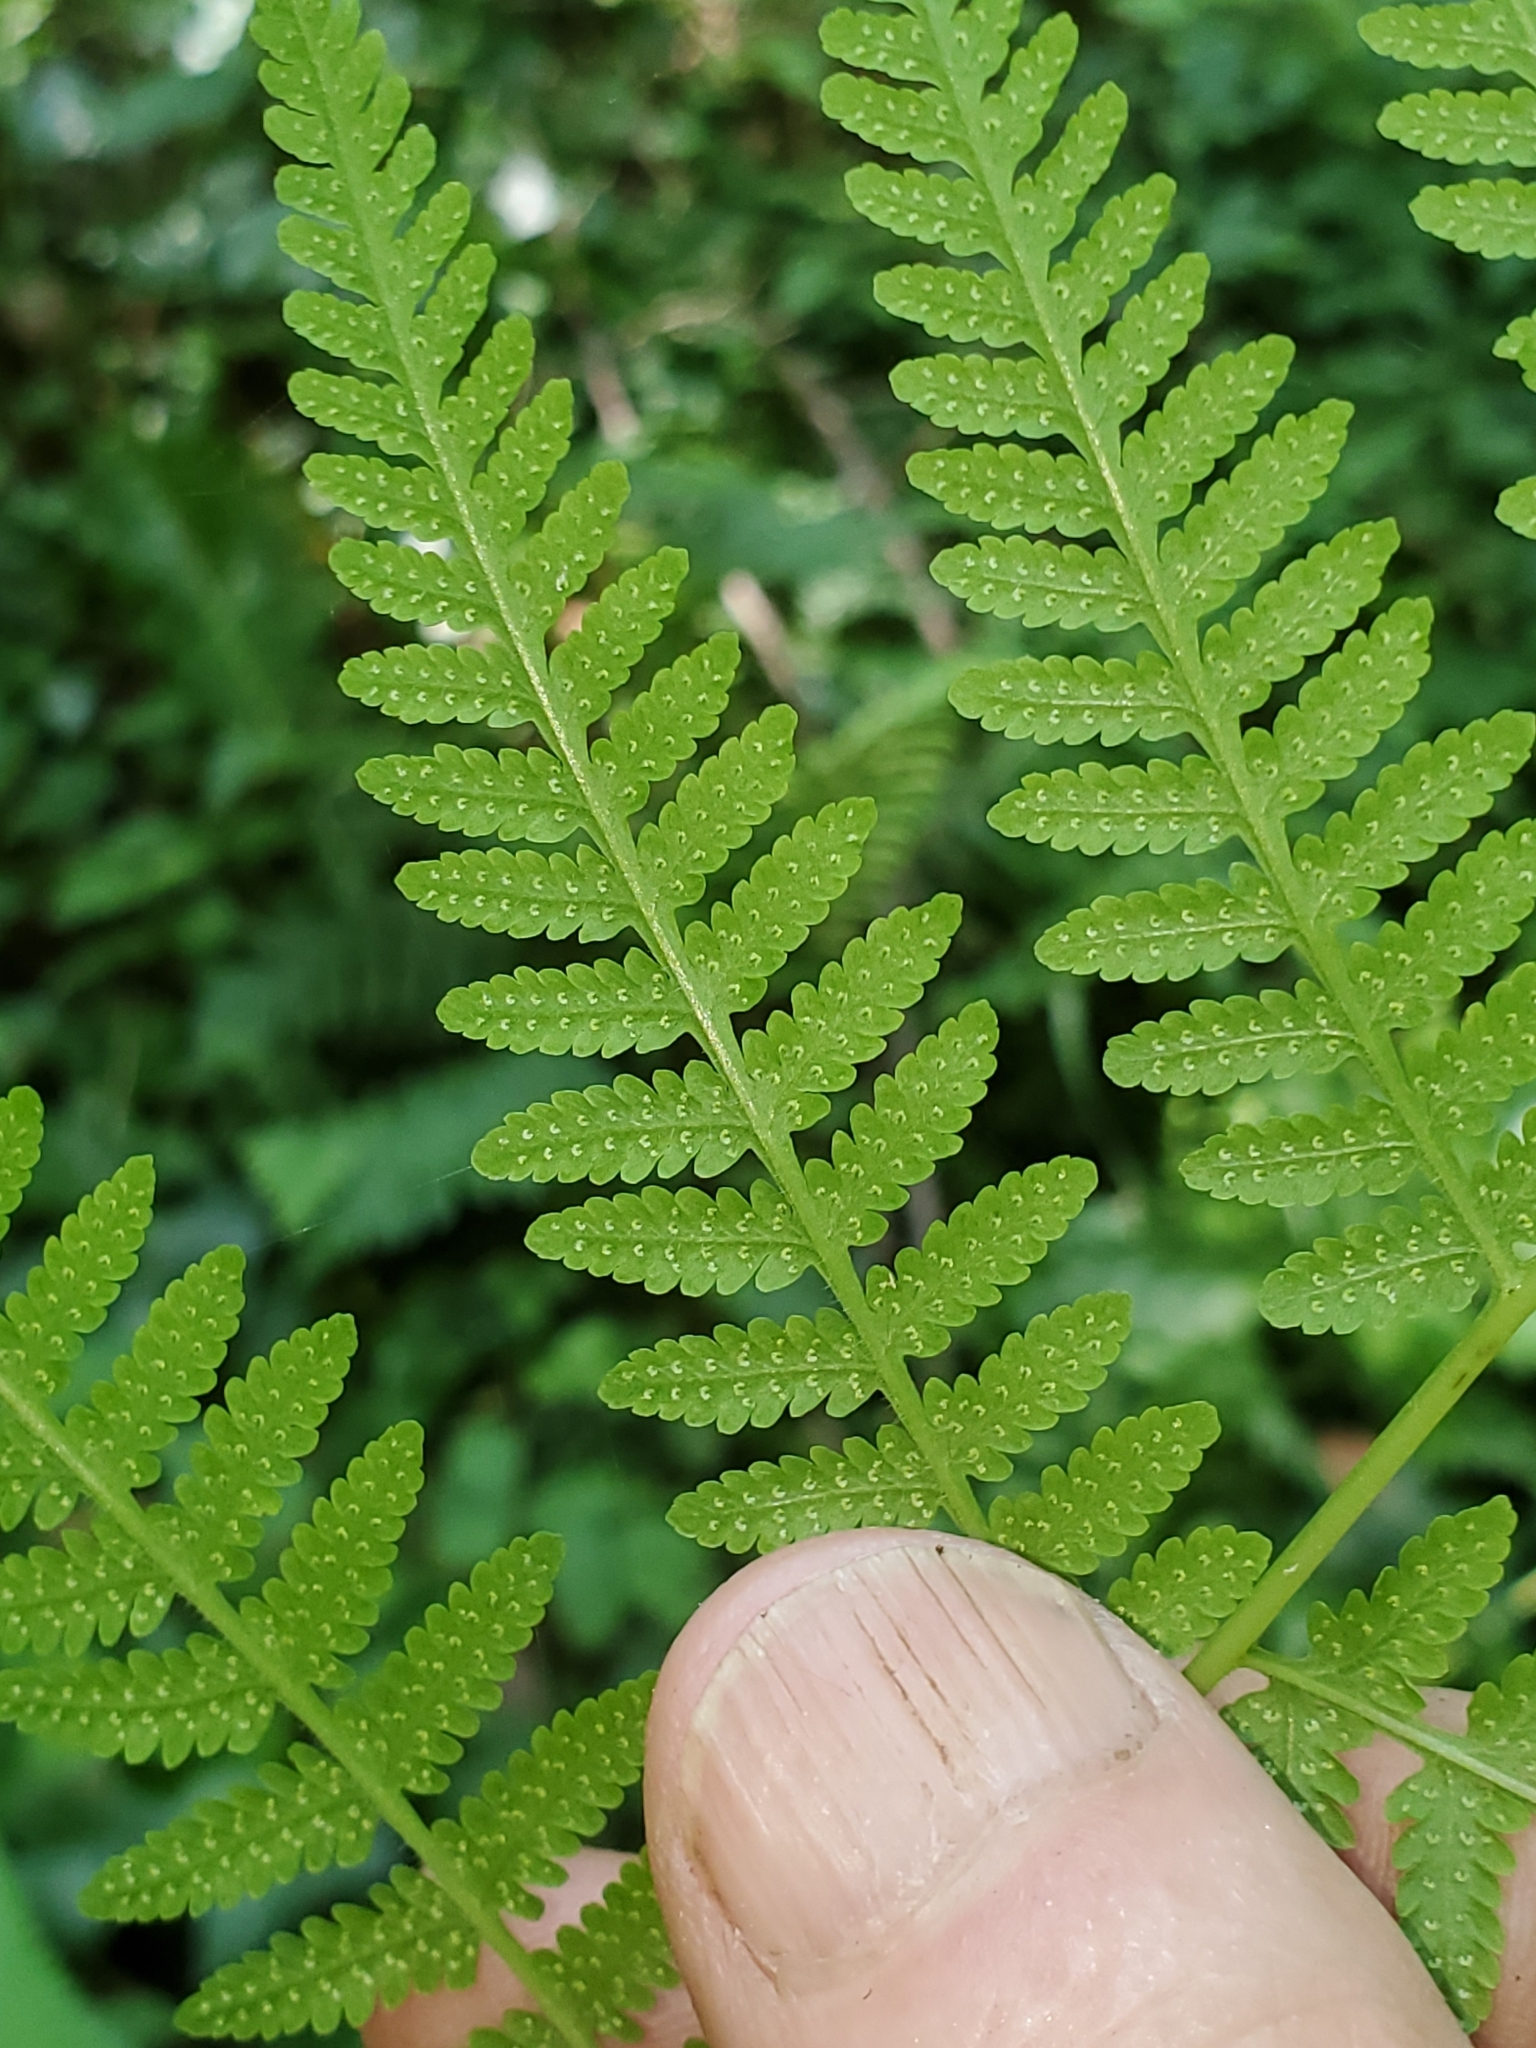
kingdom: Plantae
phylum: Tracheophyta
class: Polypodiopsida
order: Polypodiales
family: Thelypteridaceae
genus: Macrothelypteris
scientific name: Macrothelypteris torresiana
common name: Swordfern
